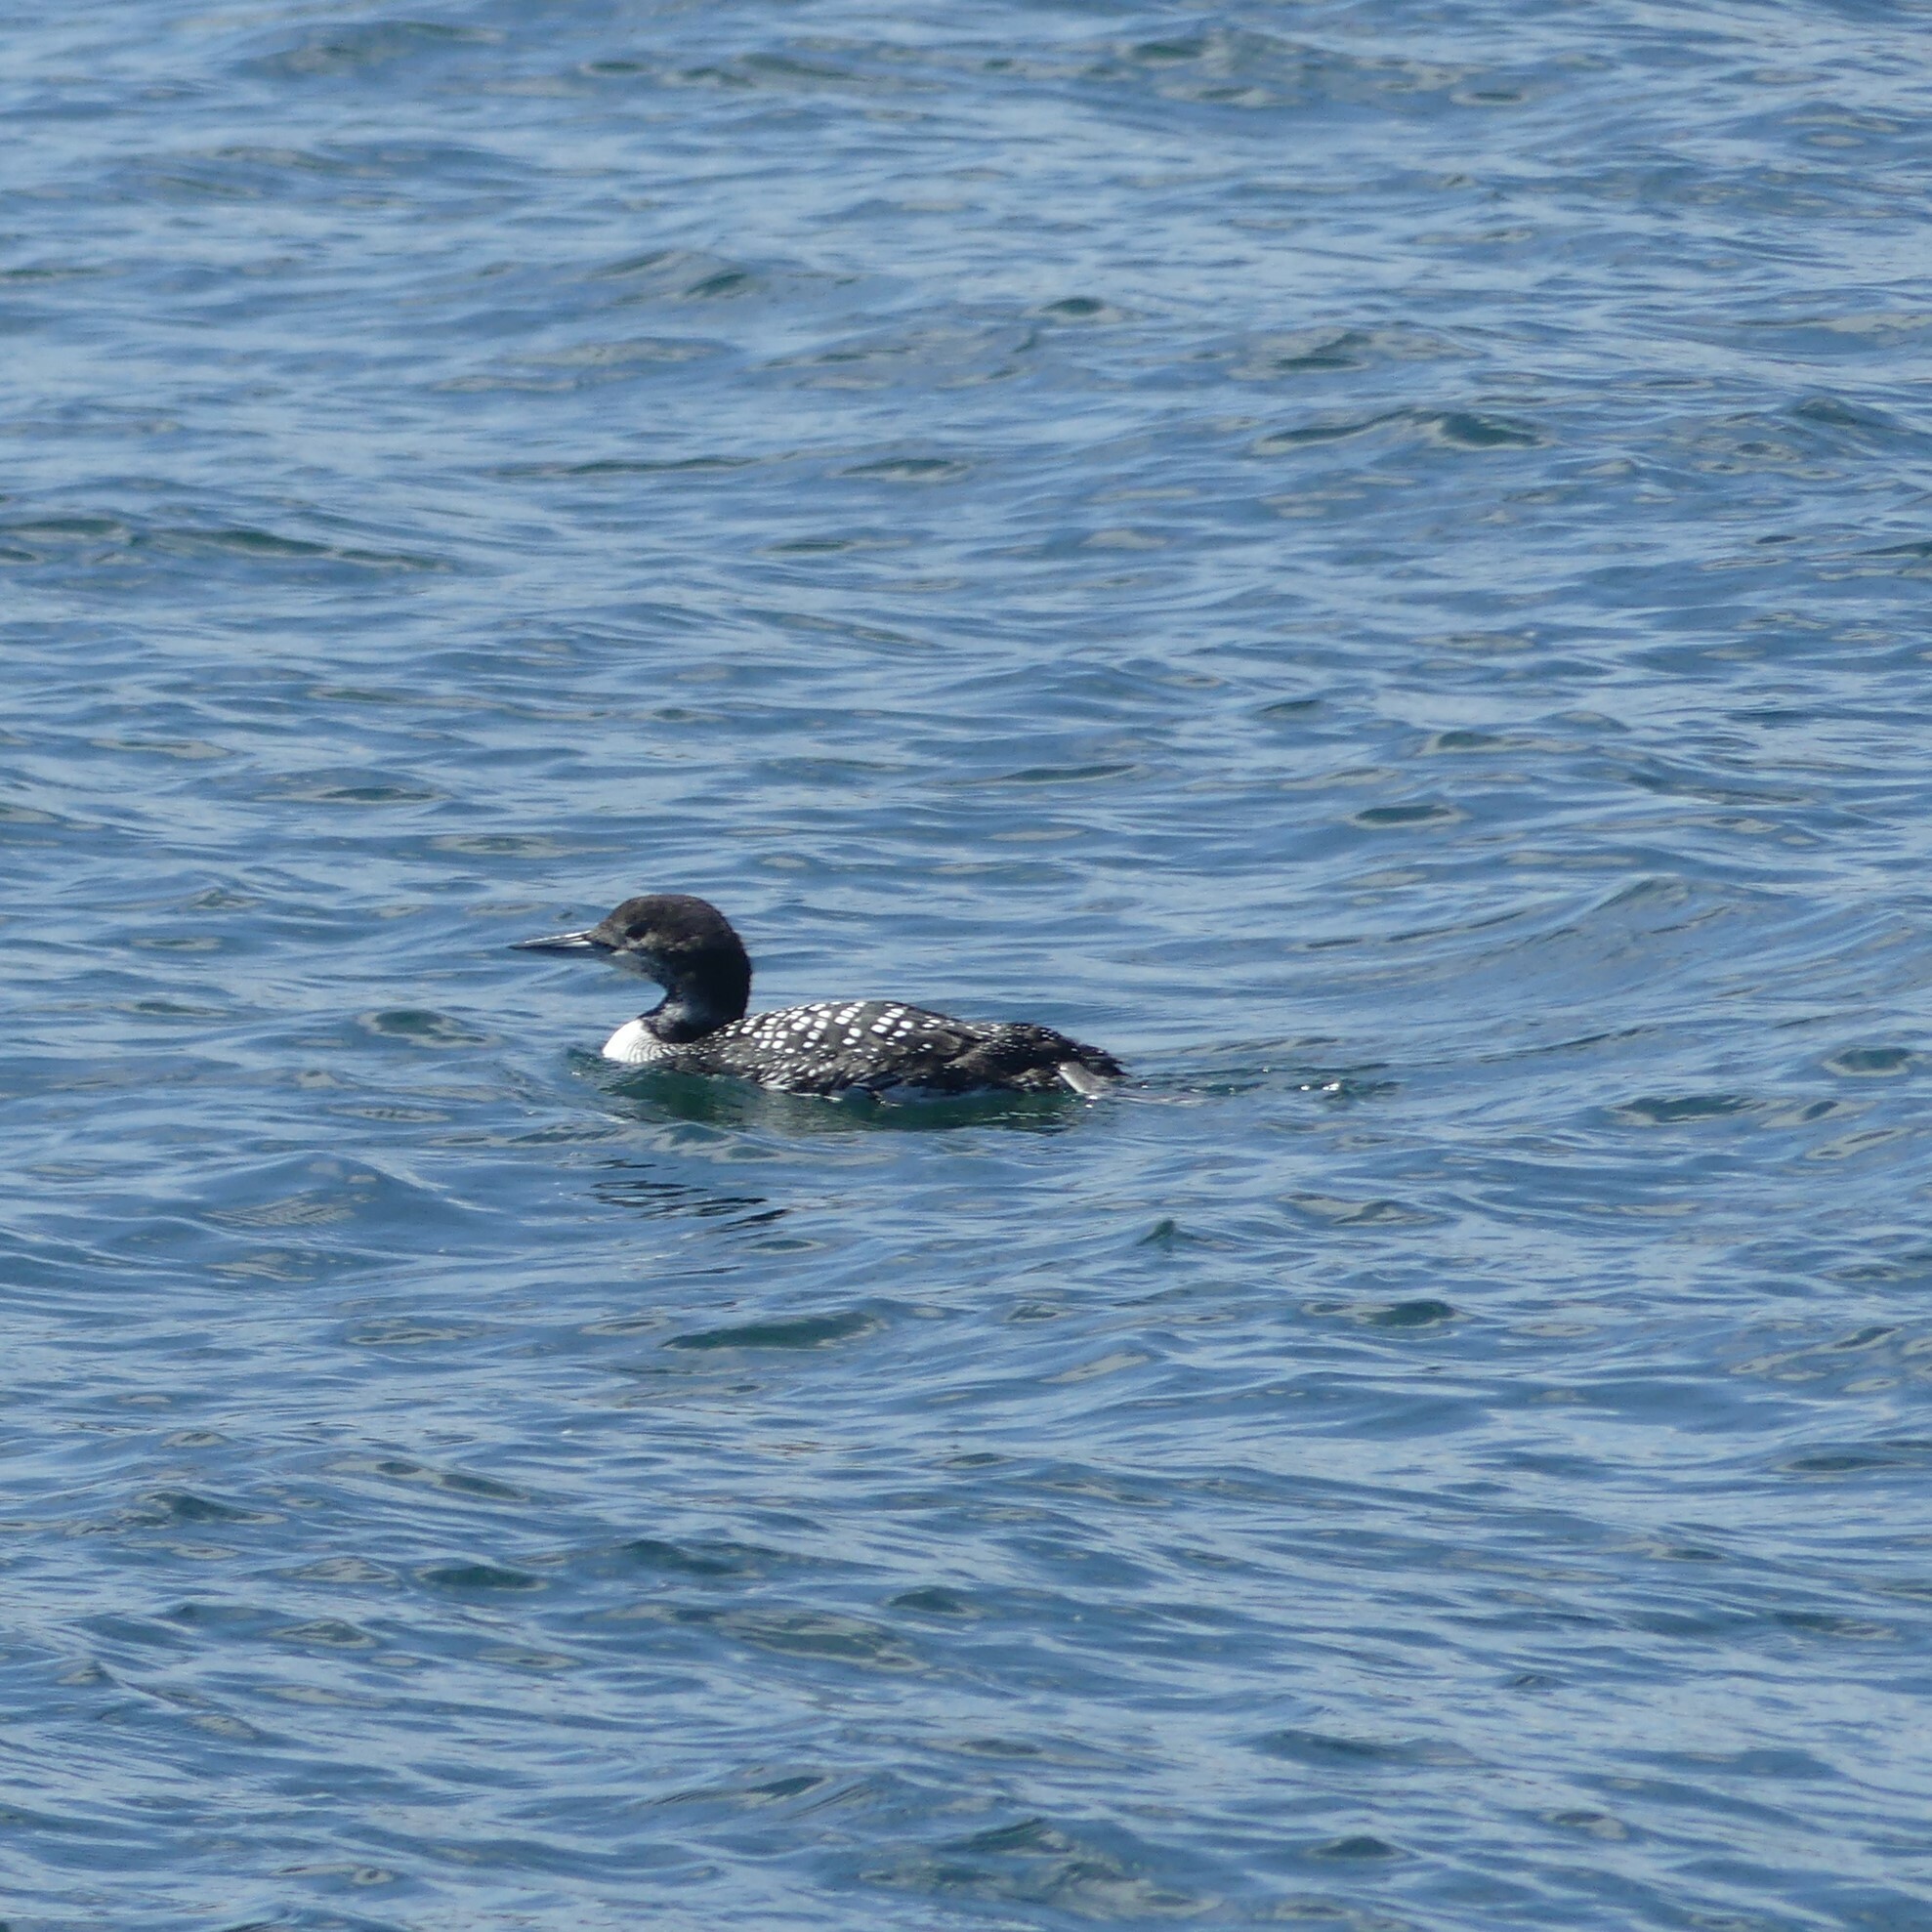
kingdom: Animalia
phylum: Chordata
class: Aves
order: Gaviiformes
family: Gaviidae
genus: Gavia
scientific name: Gavia immer
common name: Common loon
